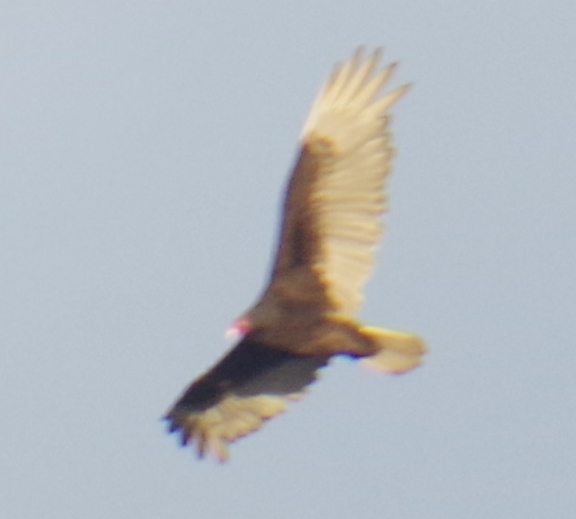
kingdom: Animalia
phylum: Chordata
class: Aves
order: Accipitriformes
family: Cathartidae
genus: Cathartes
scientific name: Cathartes aura
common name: Turkey vulture
